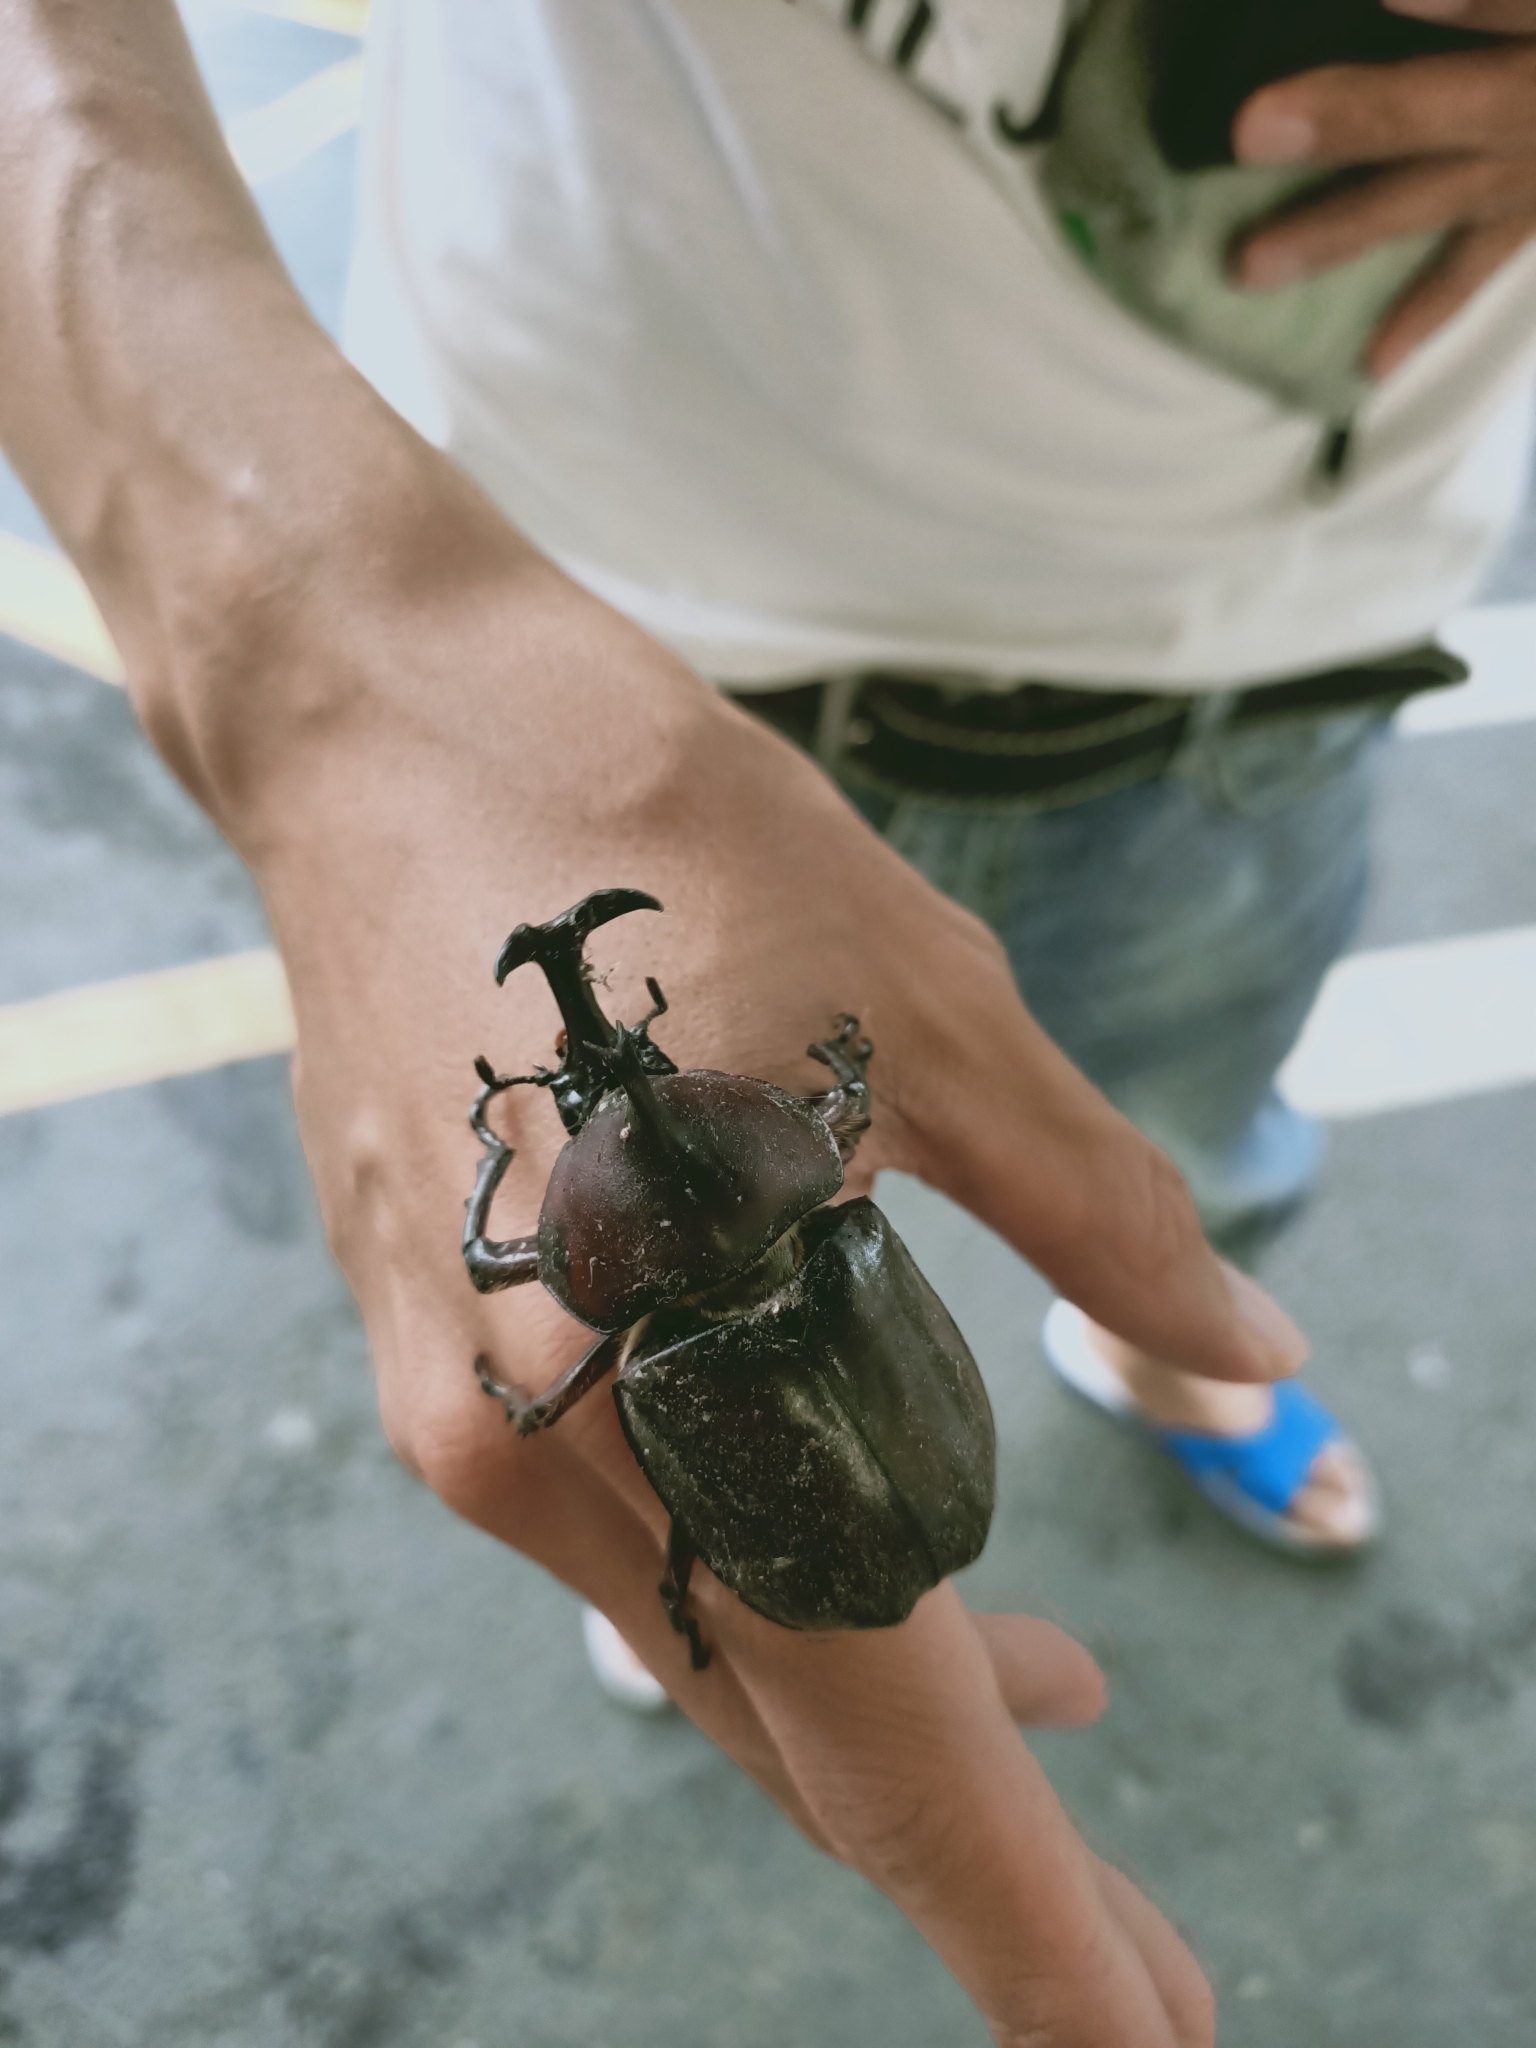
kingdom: Animalia
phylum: Arthropoda
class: Insecta
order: Coleoptera
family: Scarabaeidae
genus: Trypoxylus
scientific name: Trypoxylus dichotomus
